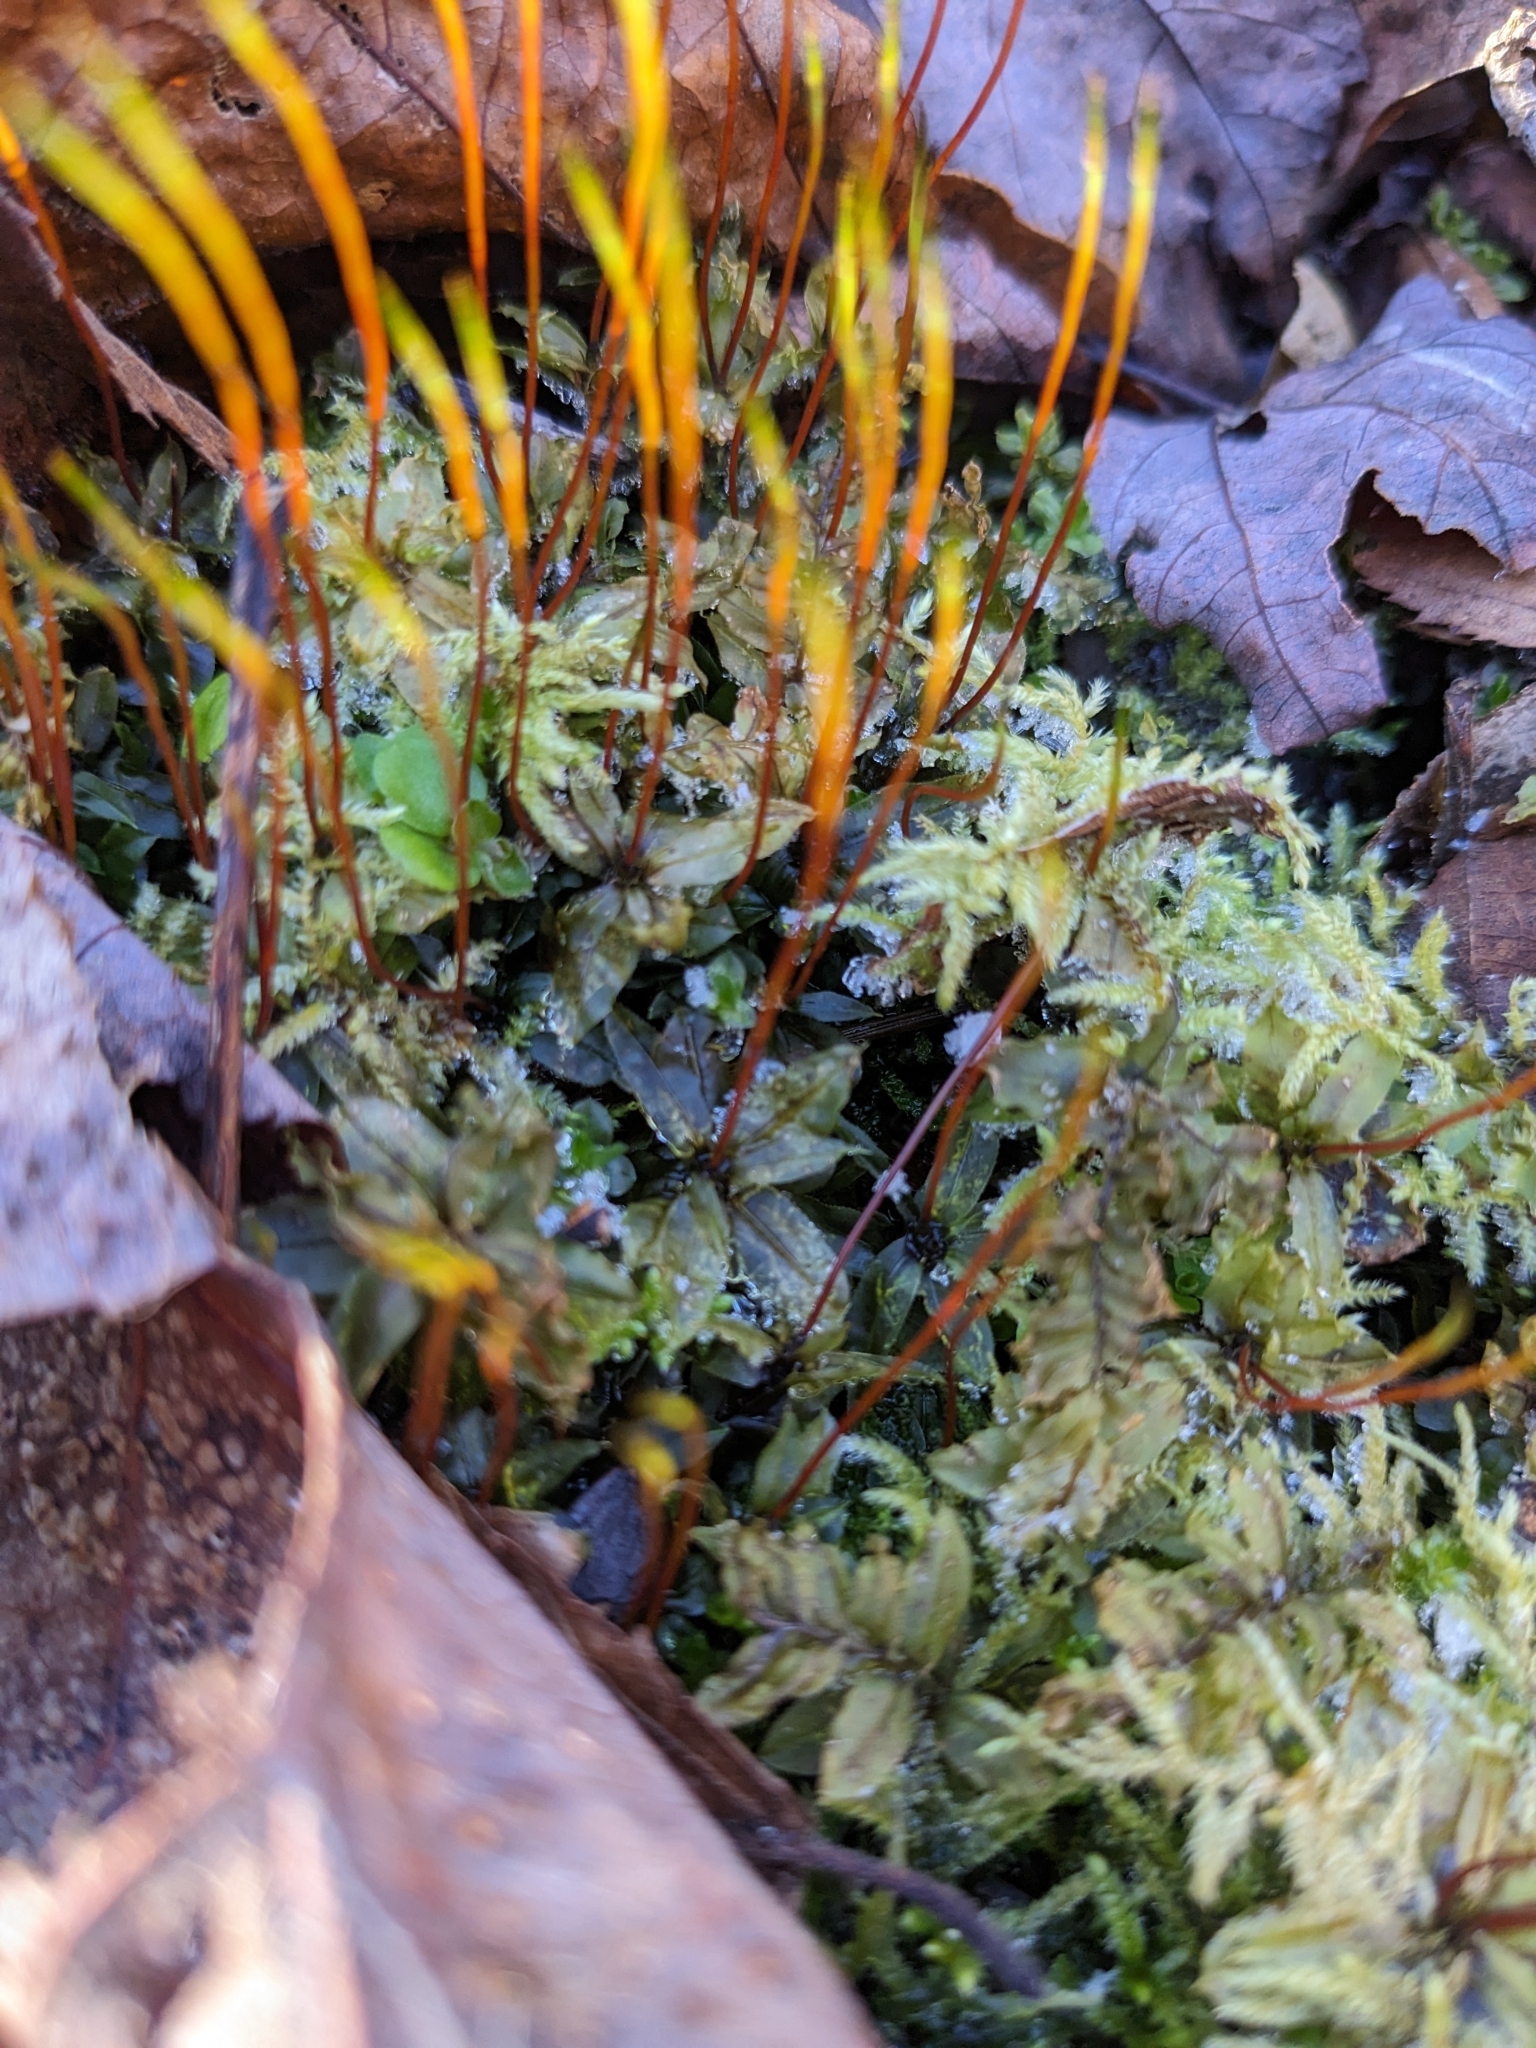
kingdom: Plantae
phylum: Bryophyta
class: Bryopsida
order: Bryales
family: Mniaceae
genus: Plagiomnium
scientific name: Plagiomnium medium
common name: Alpine leafy moss
